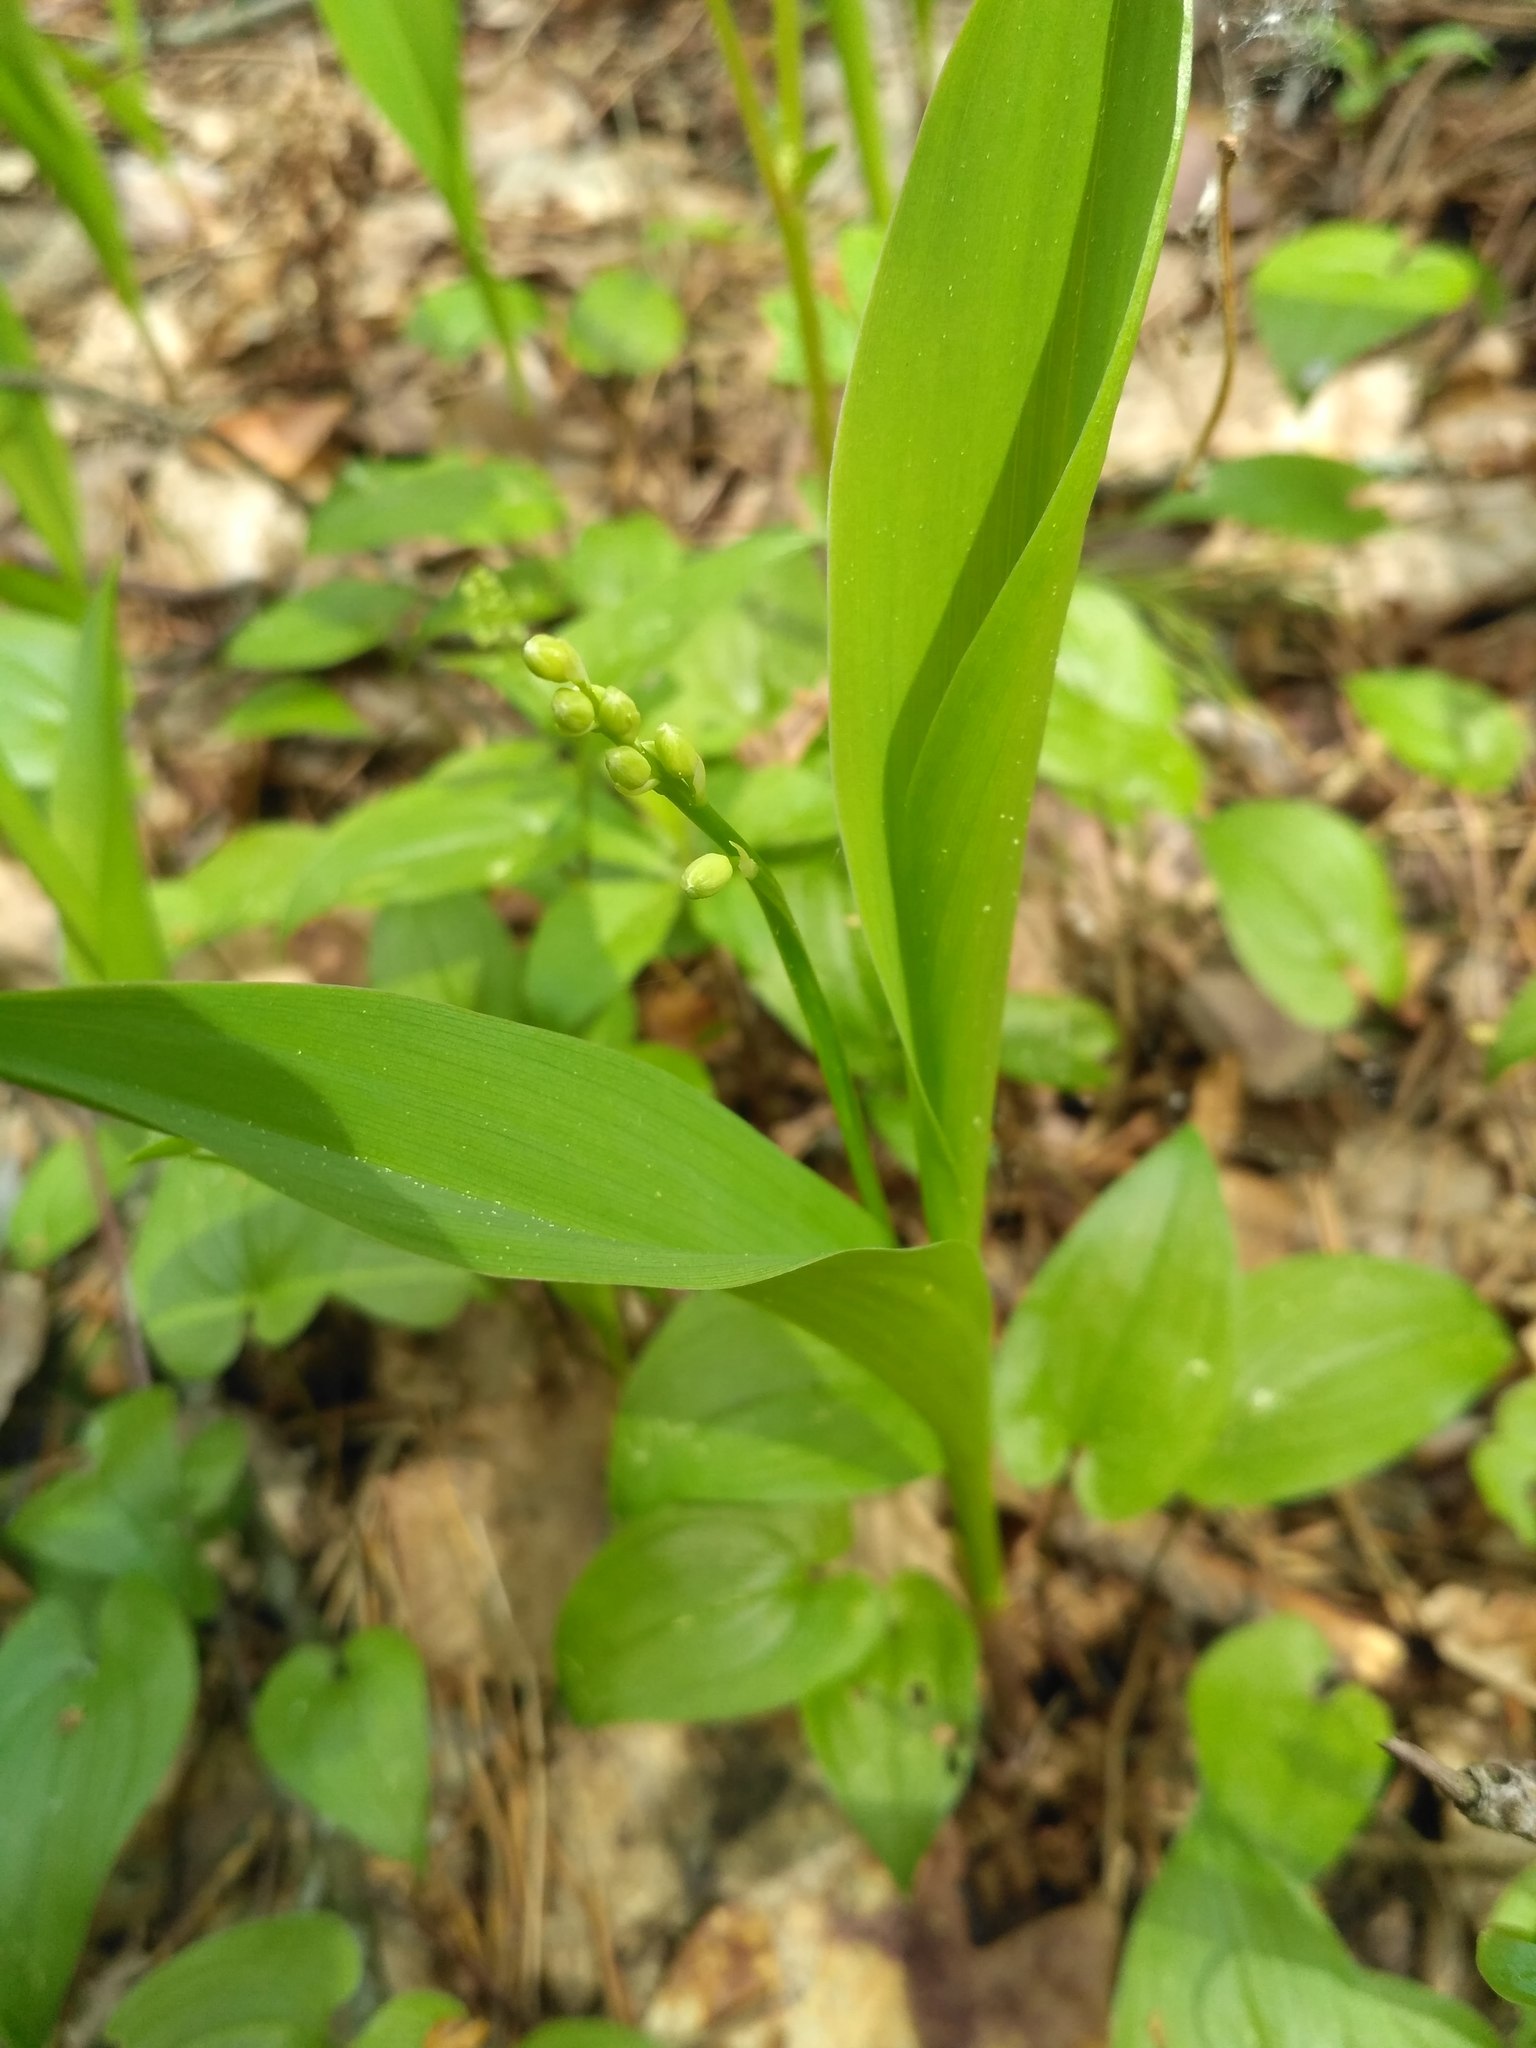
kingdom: Plantae
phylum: Tracheophyta
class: Liliopsida
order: Asparagales
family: Asparagaceae
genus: Convallaria
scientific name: Convallaria majalis
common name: Lily-of-the-valley
